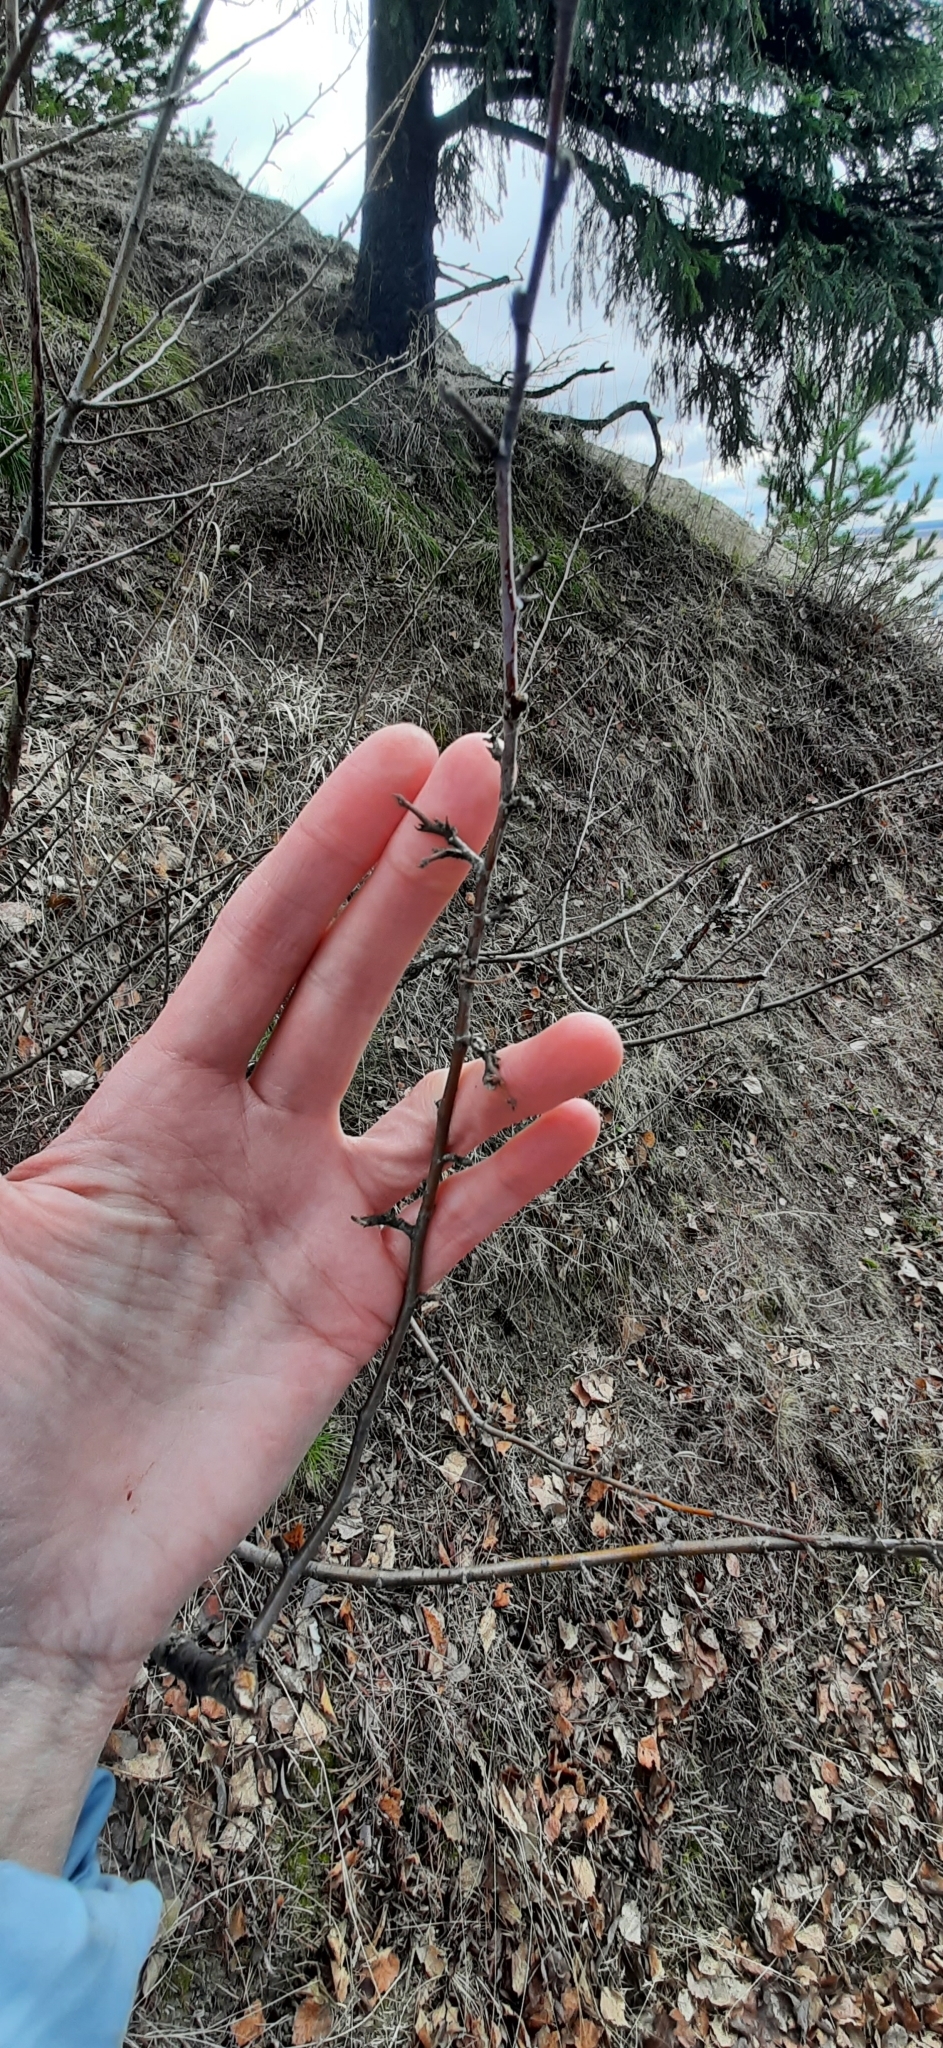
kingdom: Plantae
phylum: Tracheophyta
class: Magnoliopsida
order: Rosales
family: Rosaceae
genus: Cotoneaster
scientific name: Cotoneaster melanocarpus
